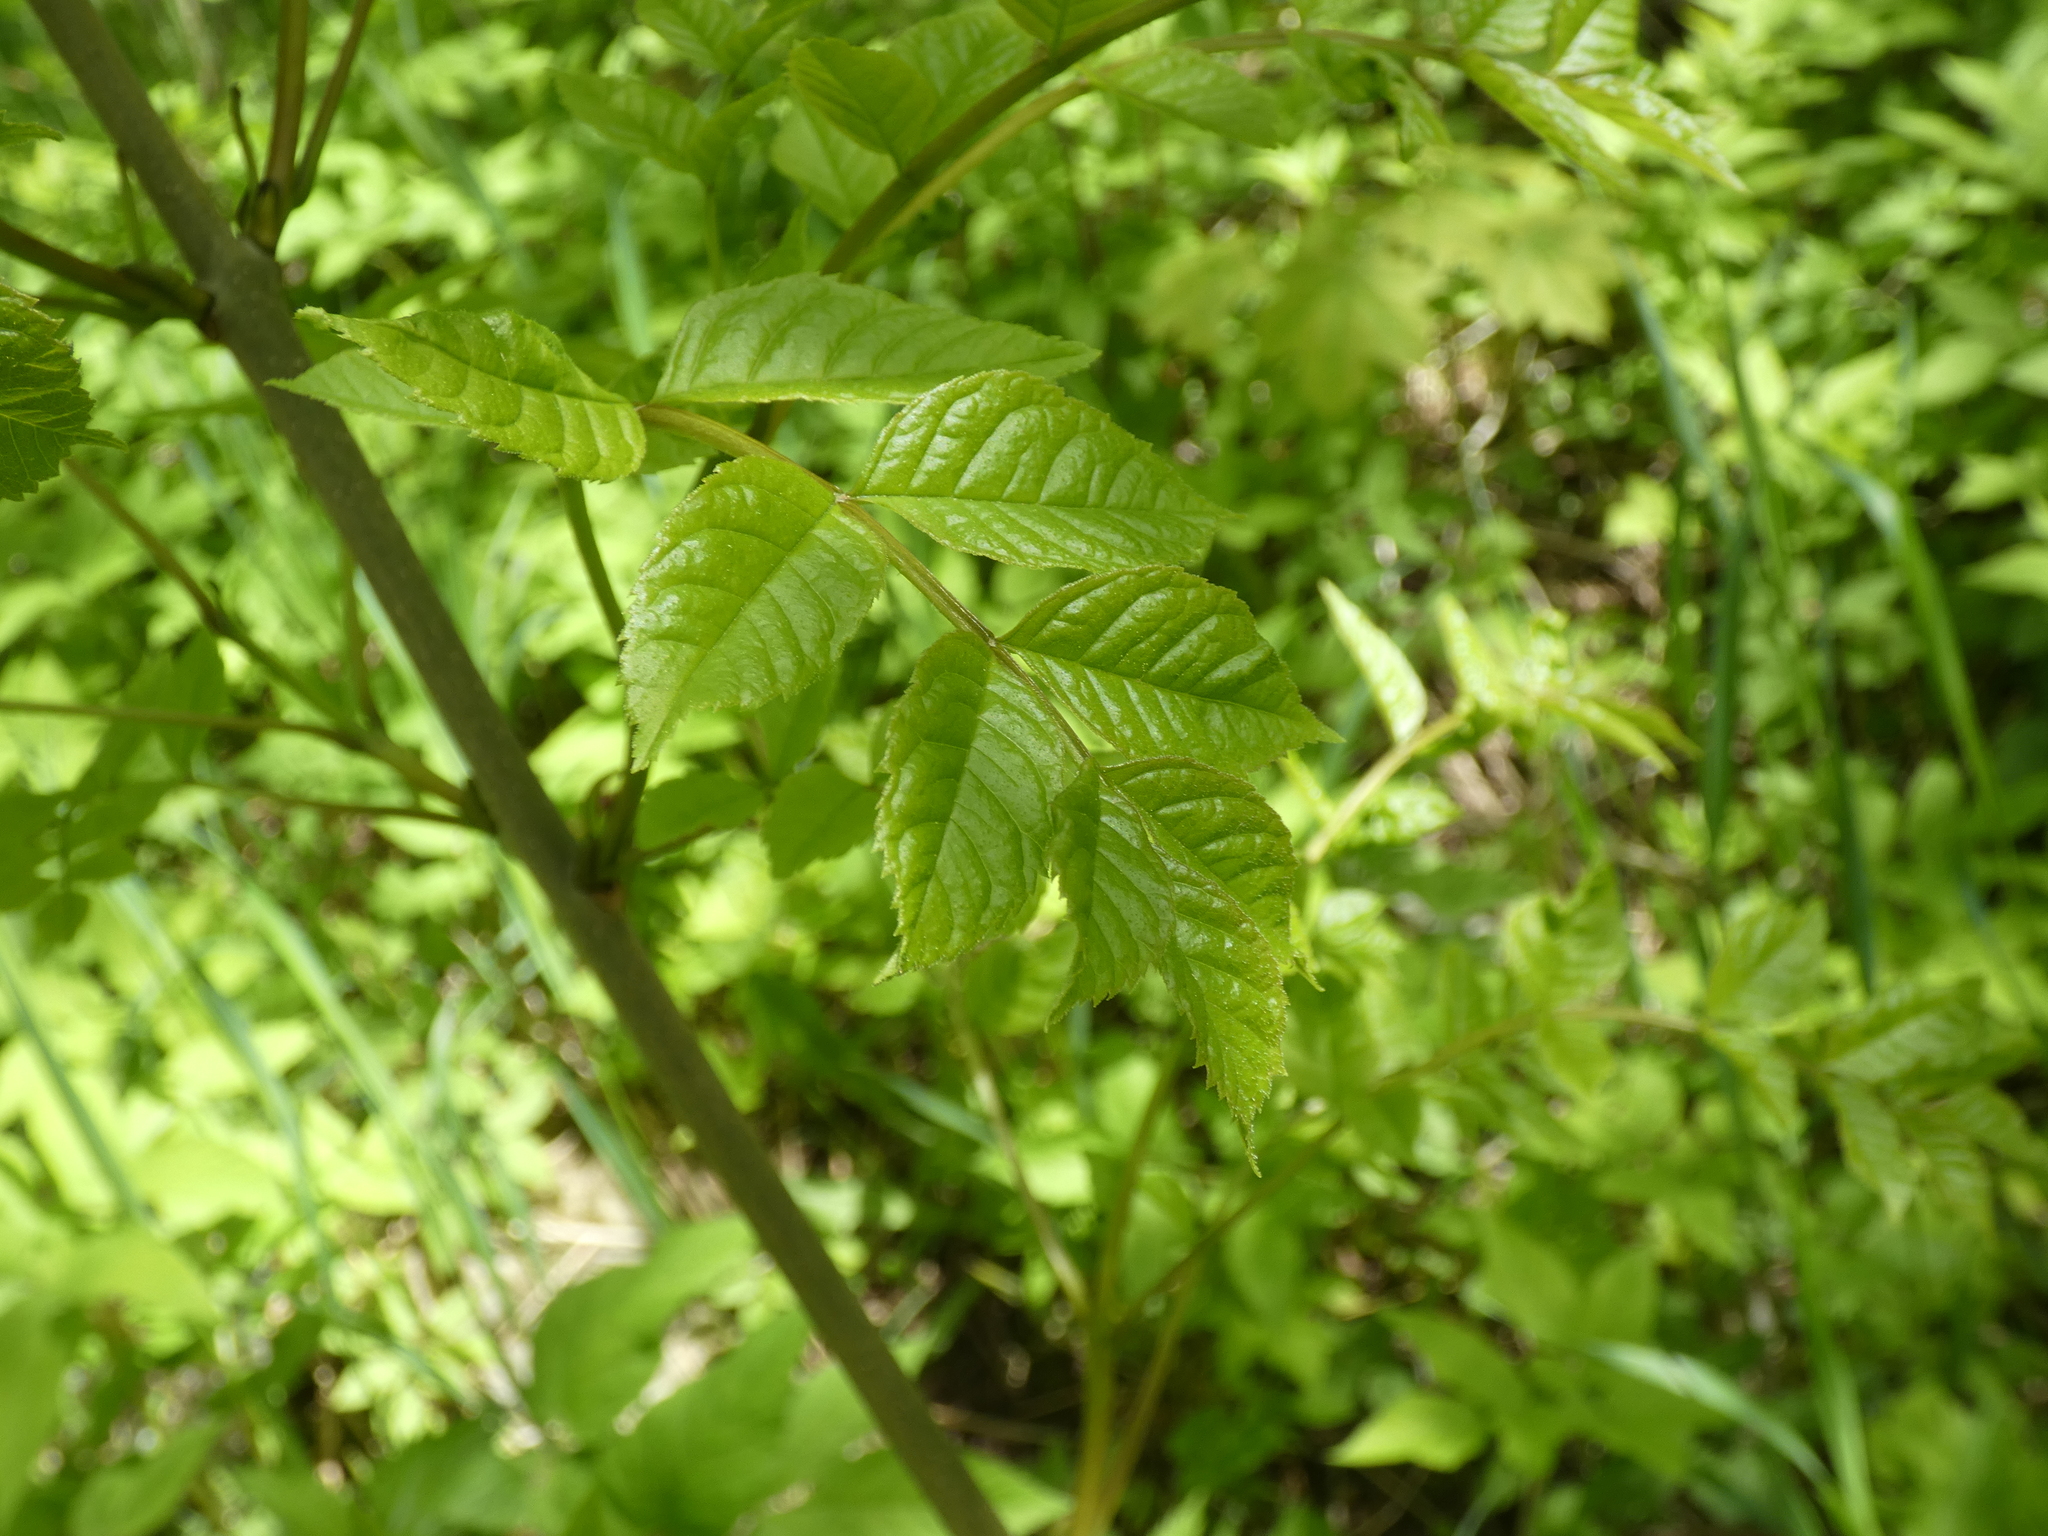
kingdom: Plantae
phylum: Tracheophyta
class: Magnoliopsida
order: Lamiales
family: Oleaceae
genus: Fraxinus
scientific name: Fraxinus excelsior
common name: European ash
